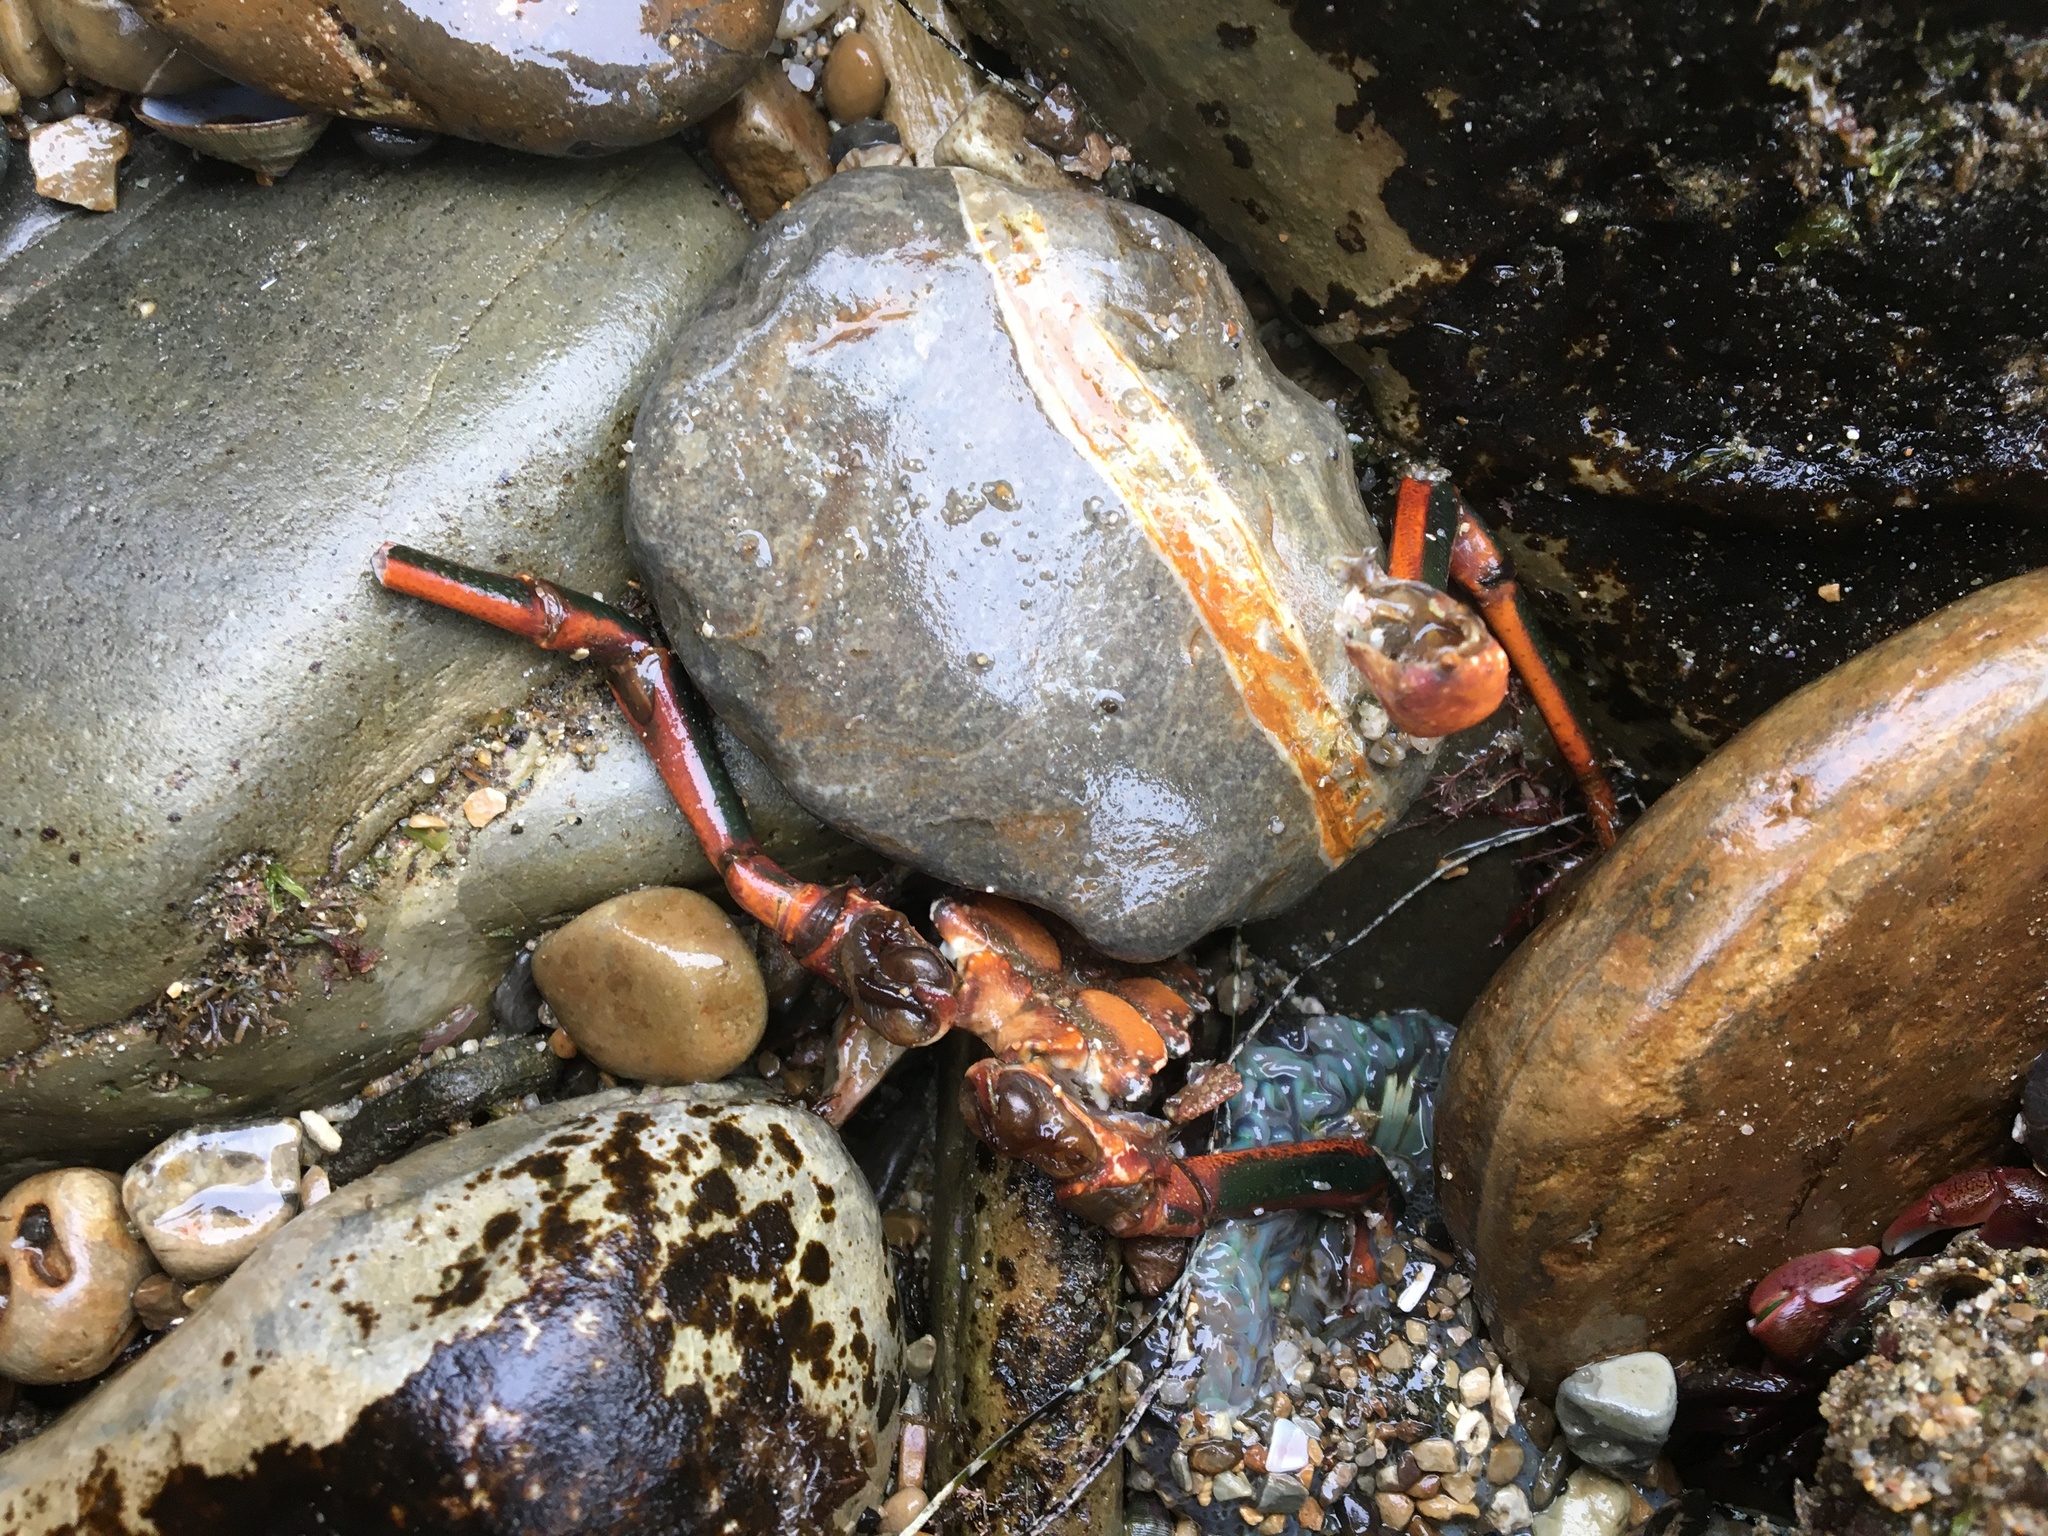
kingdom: Animalia
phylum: Arthropoda
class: Malacostraca
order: Decapoda
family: Palinuridae
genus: Panulirus
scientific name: Panulirus interruptus
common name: California spiny lobster
